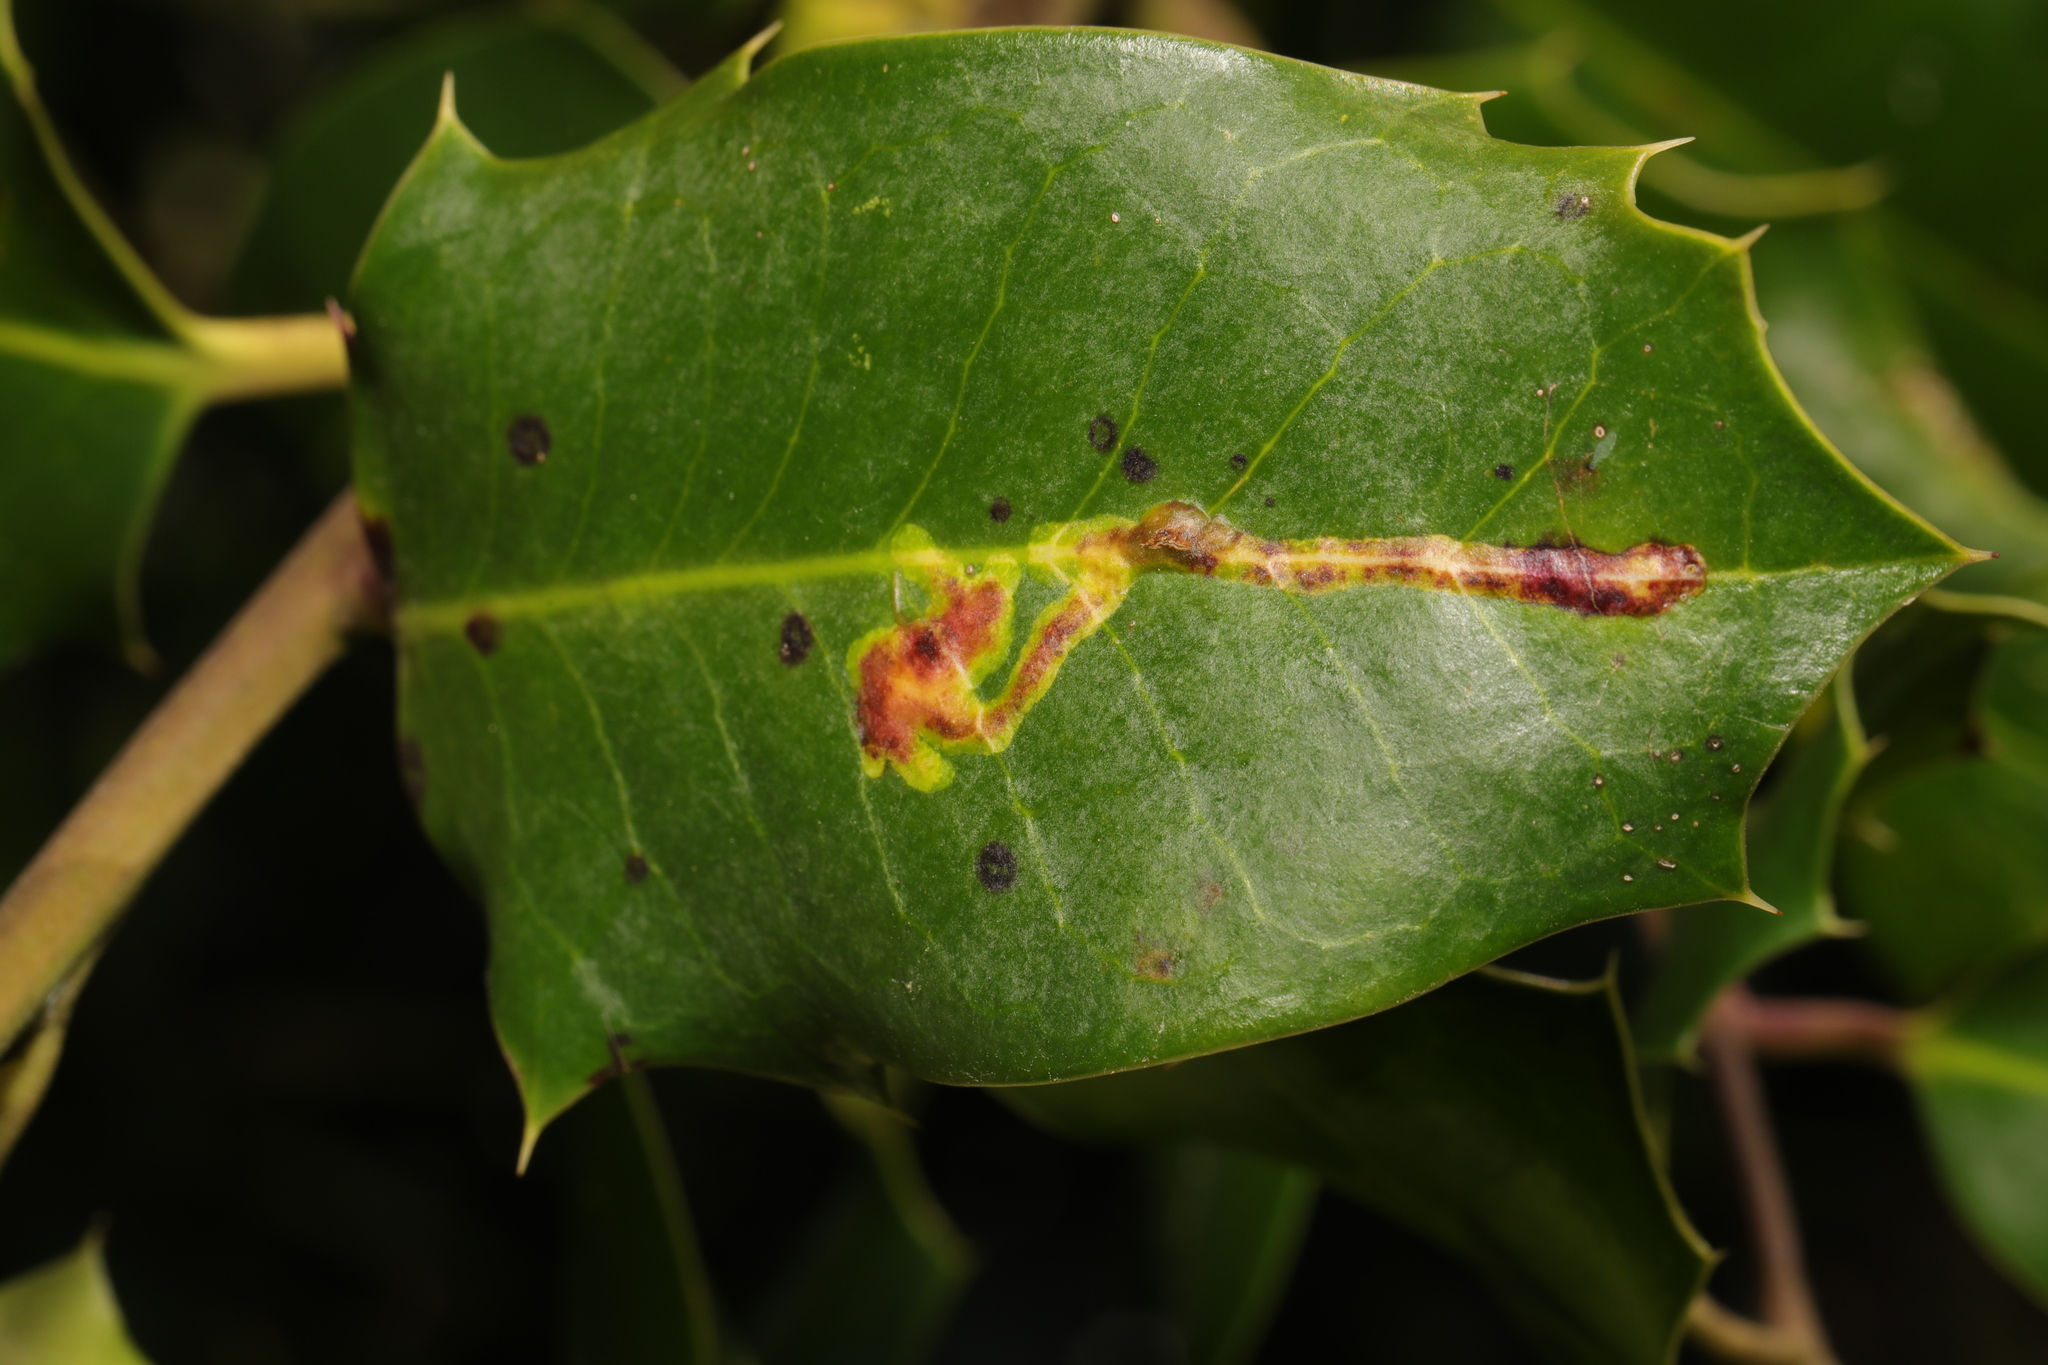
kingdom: Animalia
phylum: Arthropoda
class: Insecta
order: Diptera
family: Agromyzidae
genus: Phytomyza
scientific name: Phytomyza ilicis
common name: Holly leafminer
